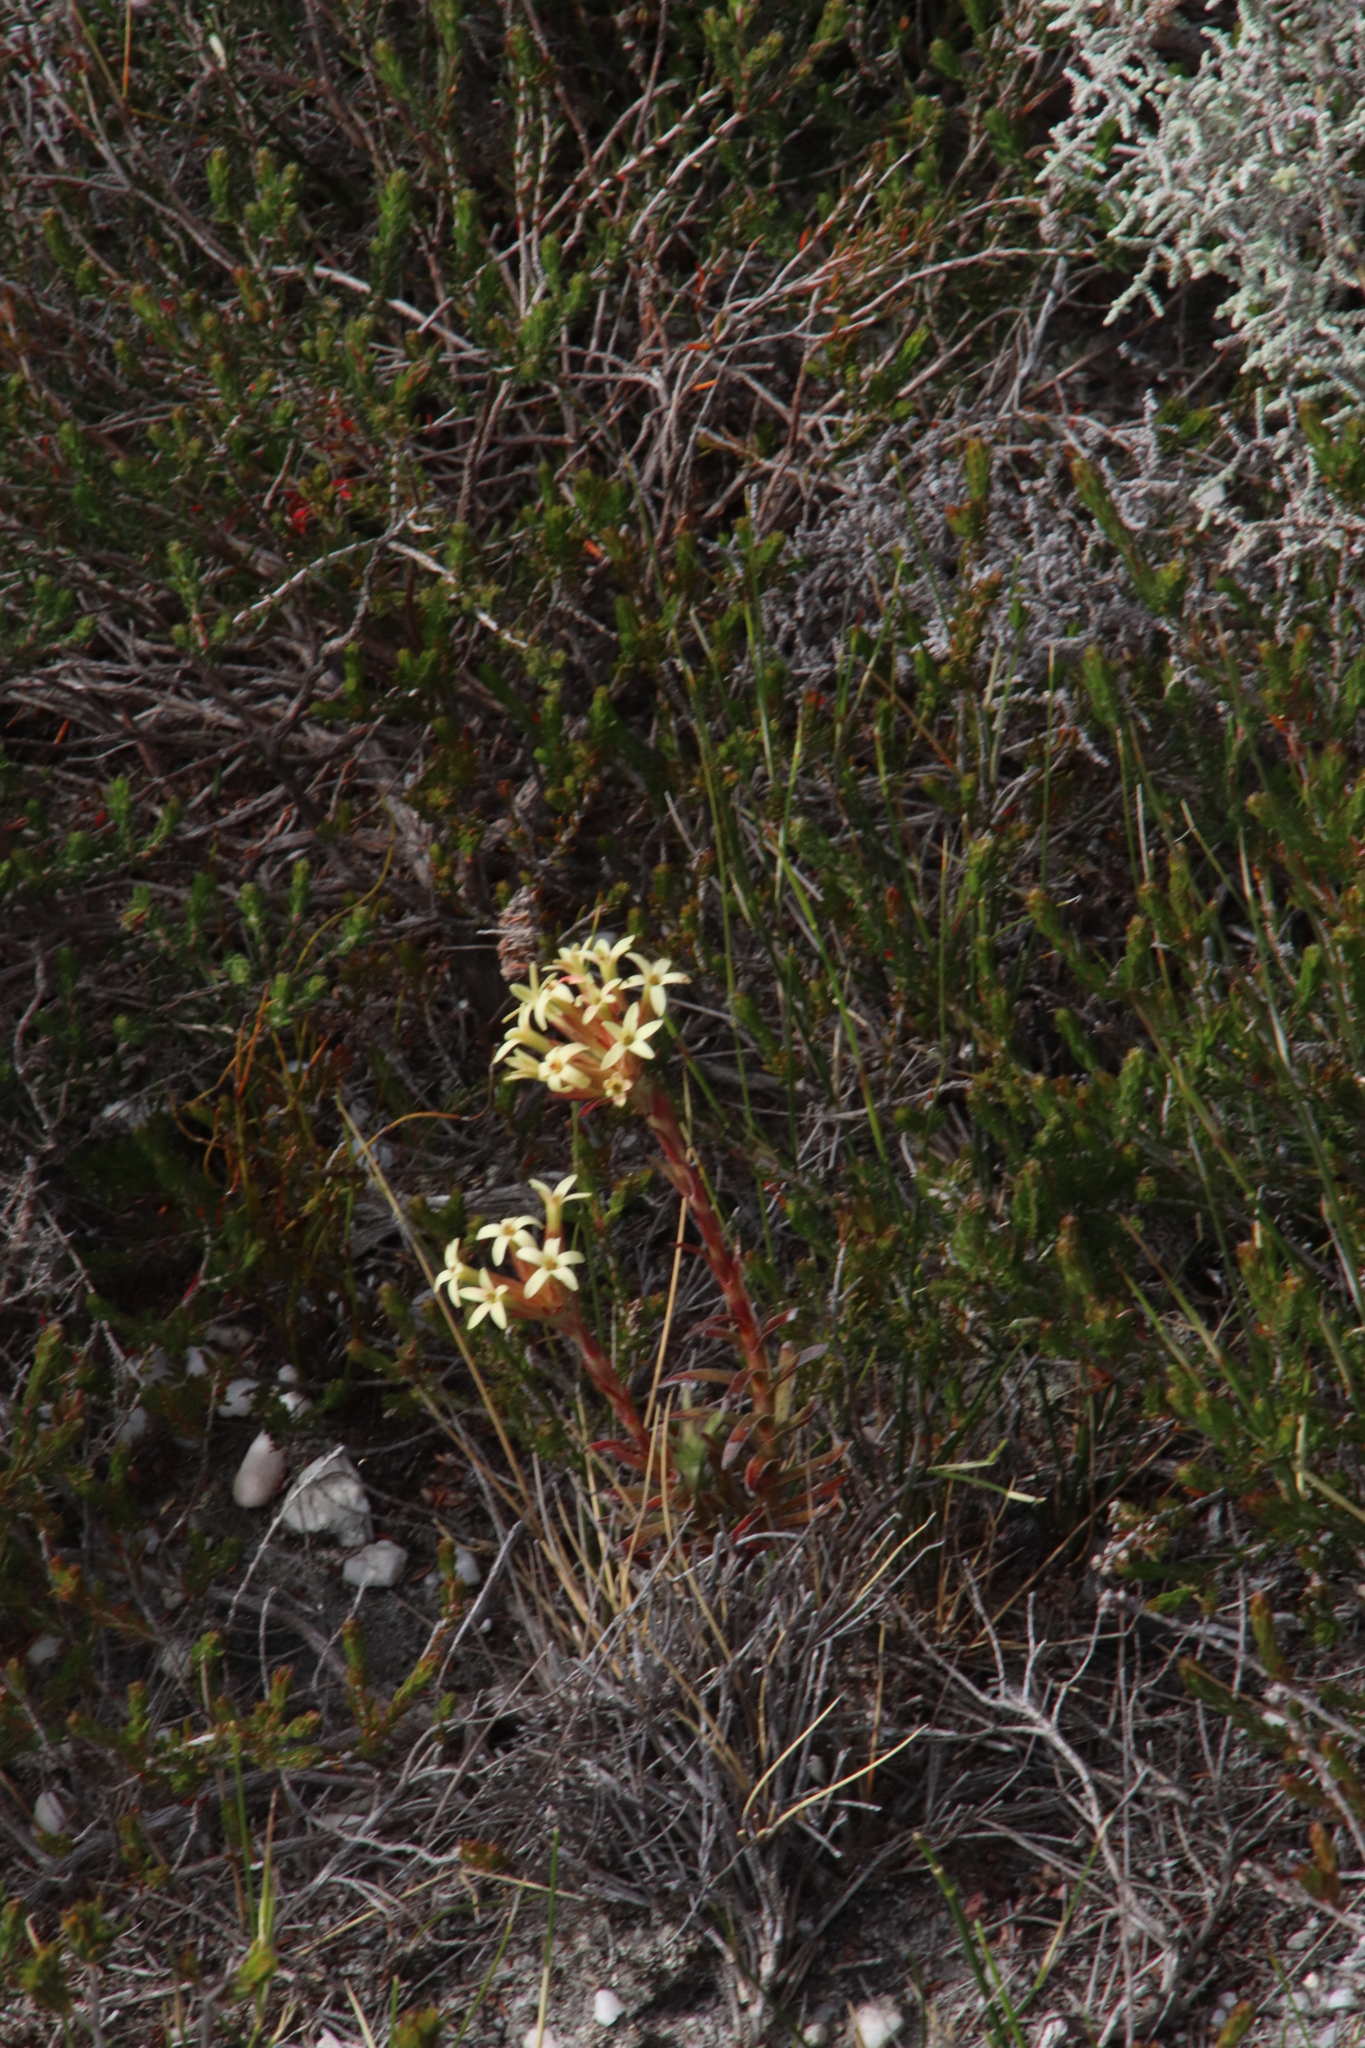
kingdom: Plantae
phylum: Tracheophyta
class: Magnoliopsida
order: Saxifragales
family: Crassulaceae
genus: Crassula
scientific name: Crassula fascicularis
